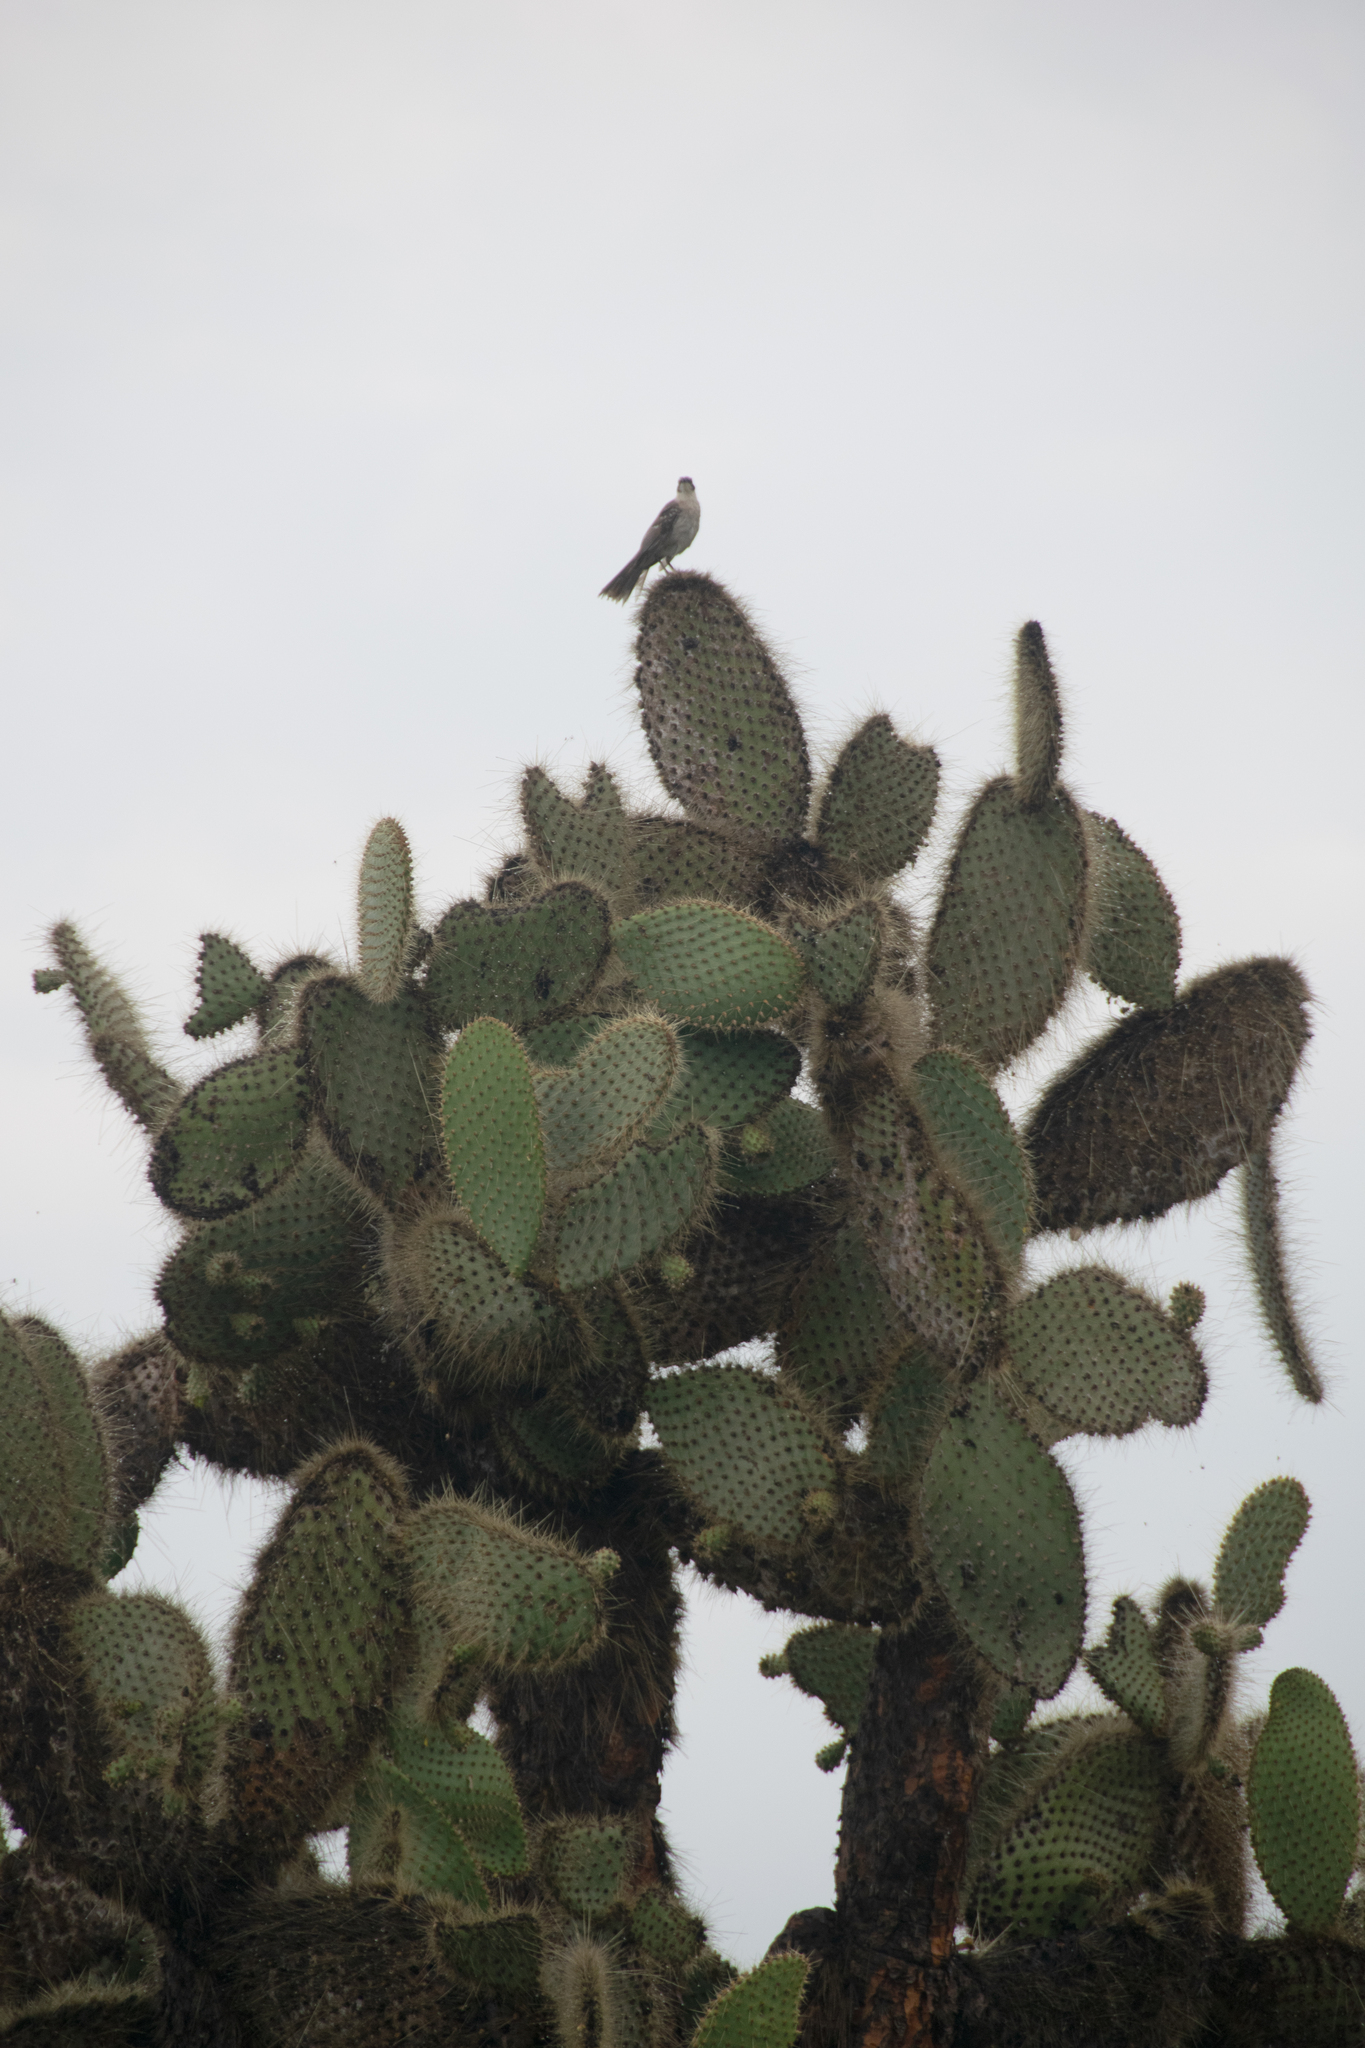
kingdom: Plantae
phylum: Tracheophyta
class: Magnoliopsida
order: Caryophyllales
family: Cactaceae
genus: Opuntia
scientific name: Opuntia galapageia
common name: Galápagos prickly pear
